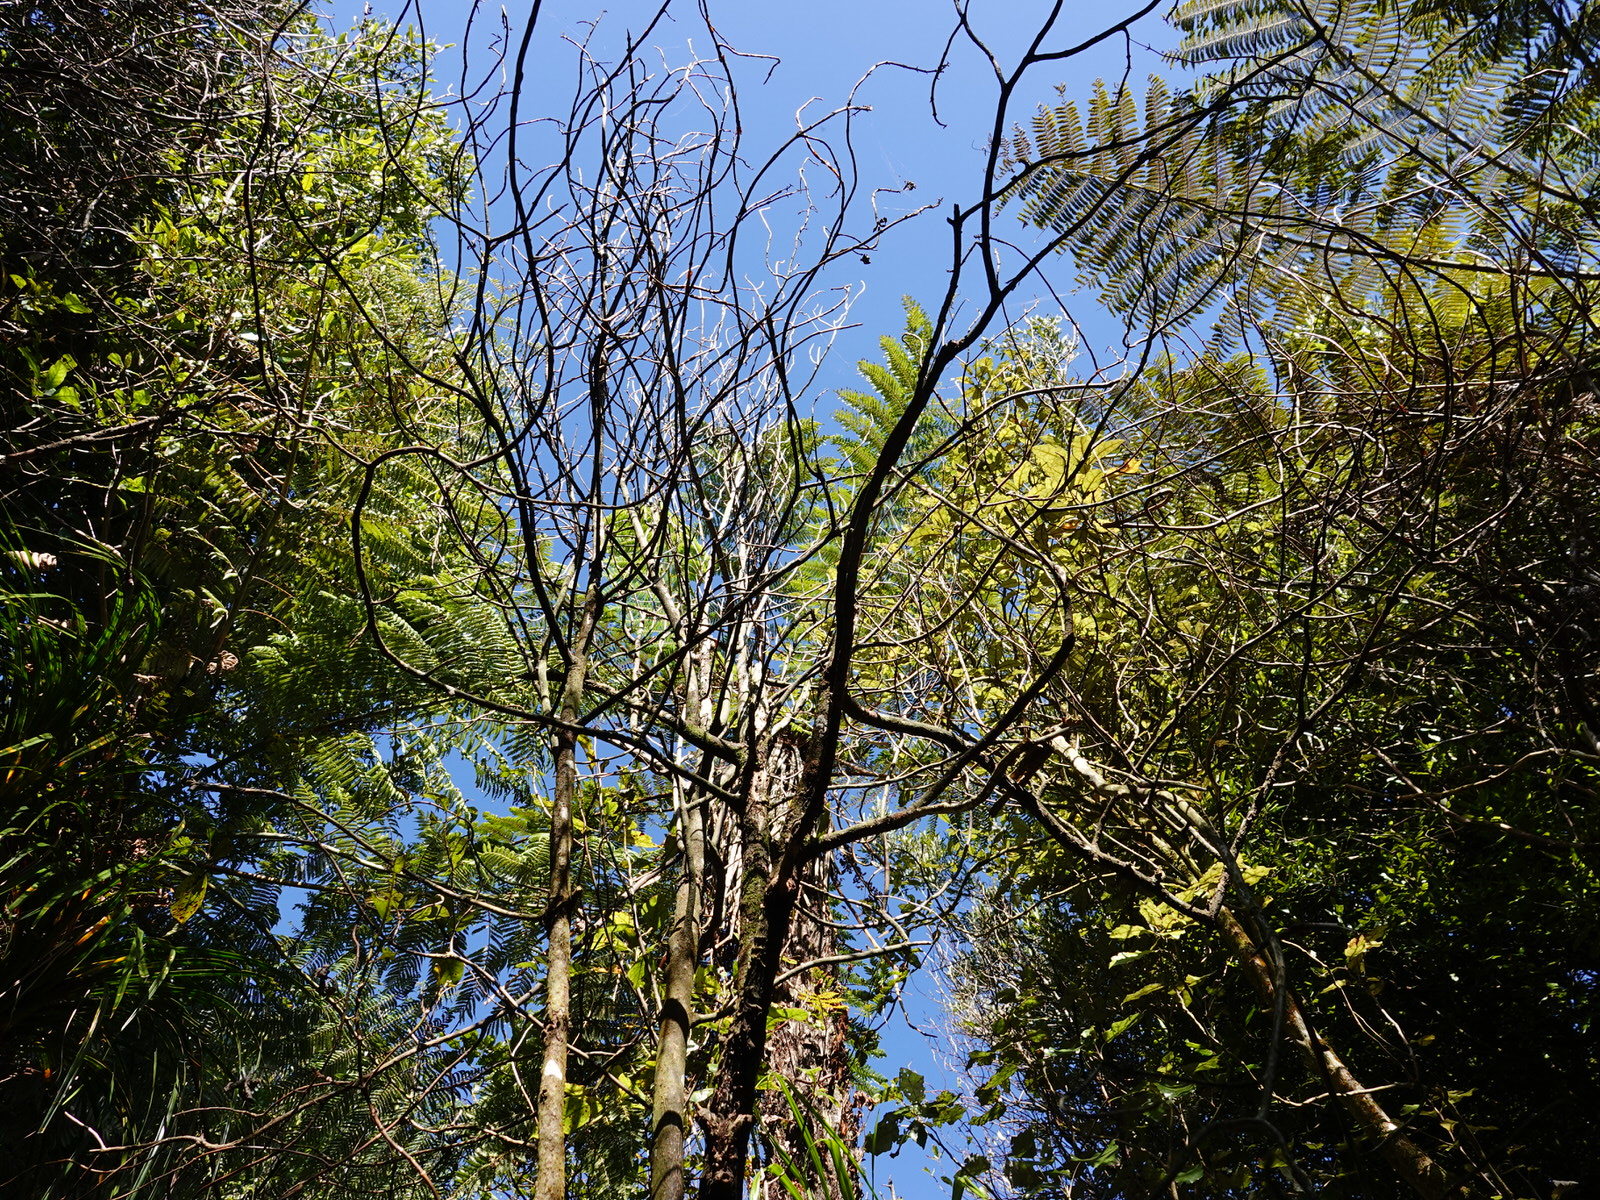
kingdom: Plantae
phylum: Tracheophyta
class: Magnoliopsida
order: Gentianales
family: Rubiaceae
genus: Coprosma
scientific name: Coprosma autumnalis
